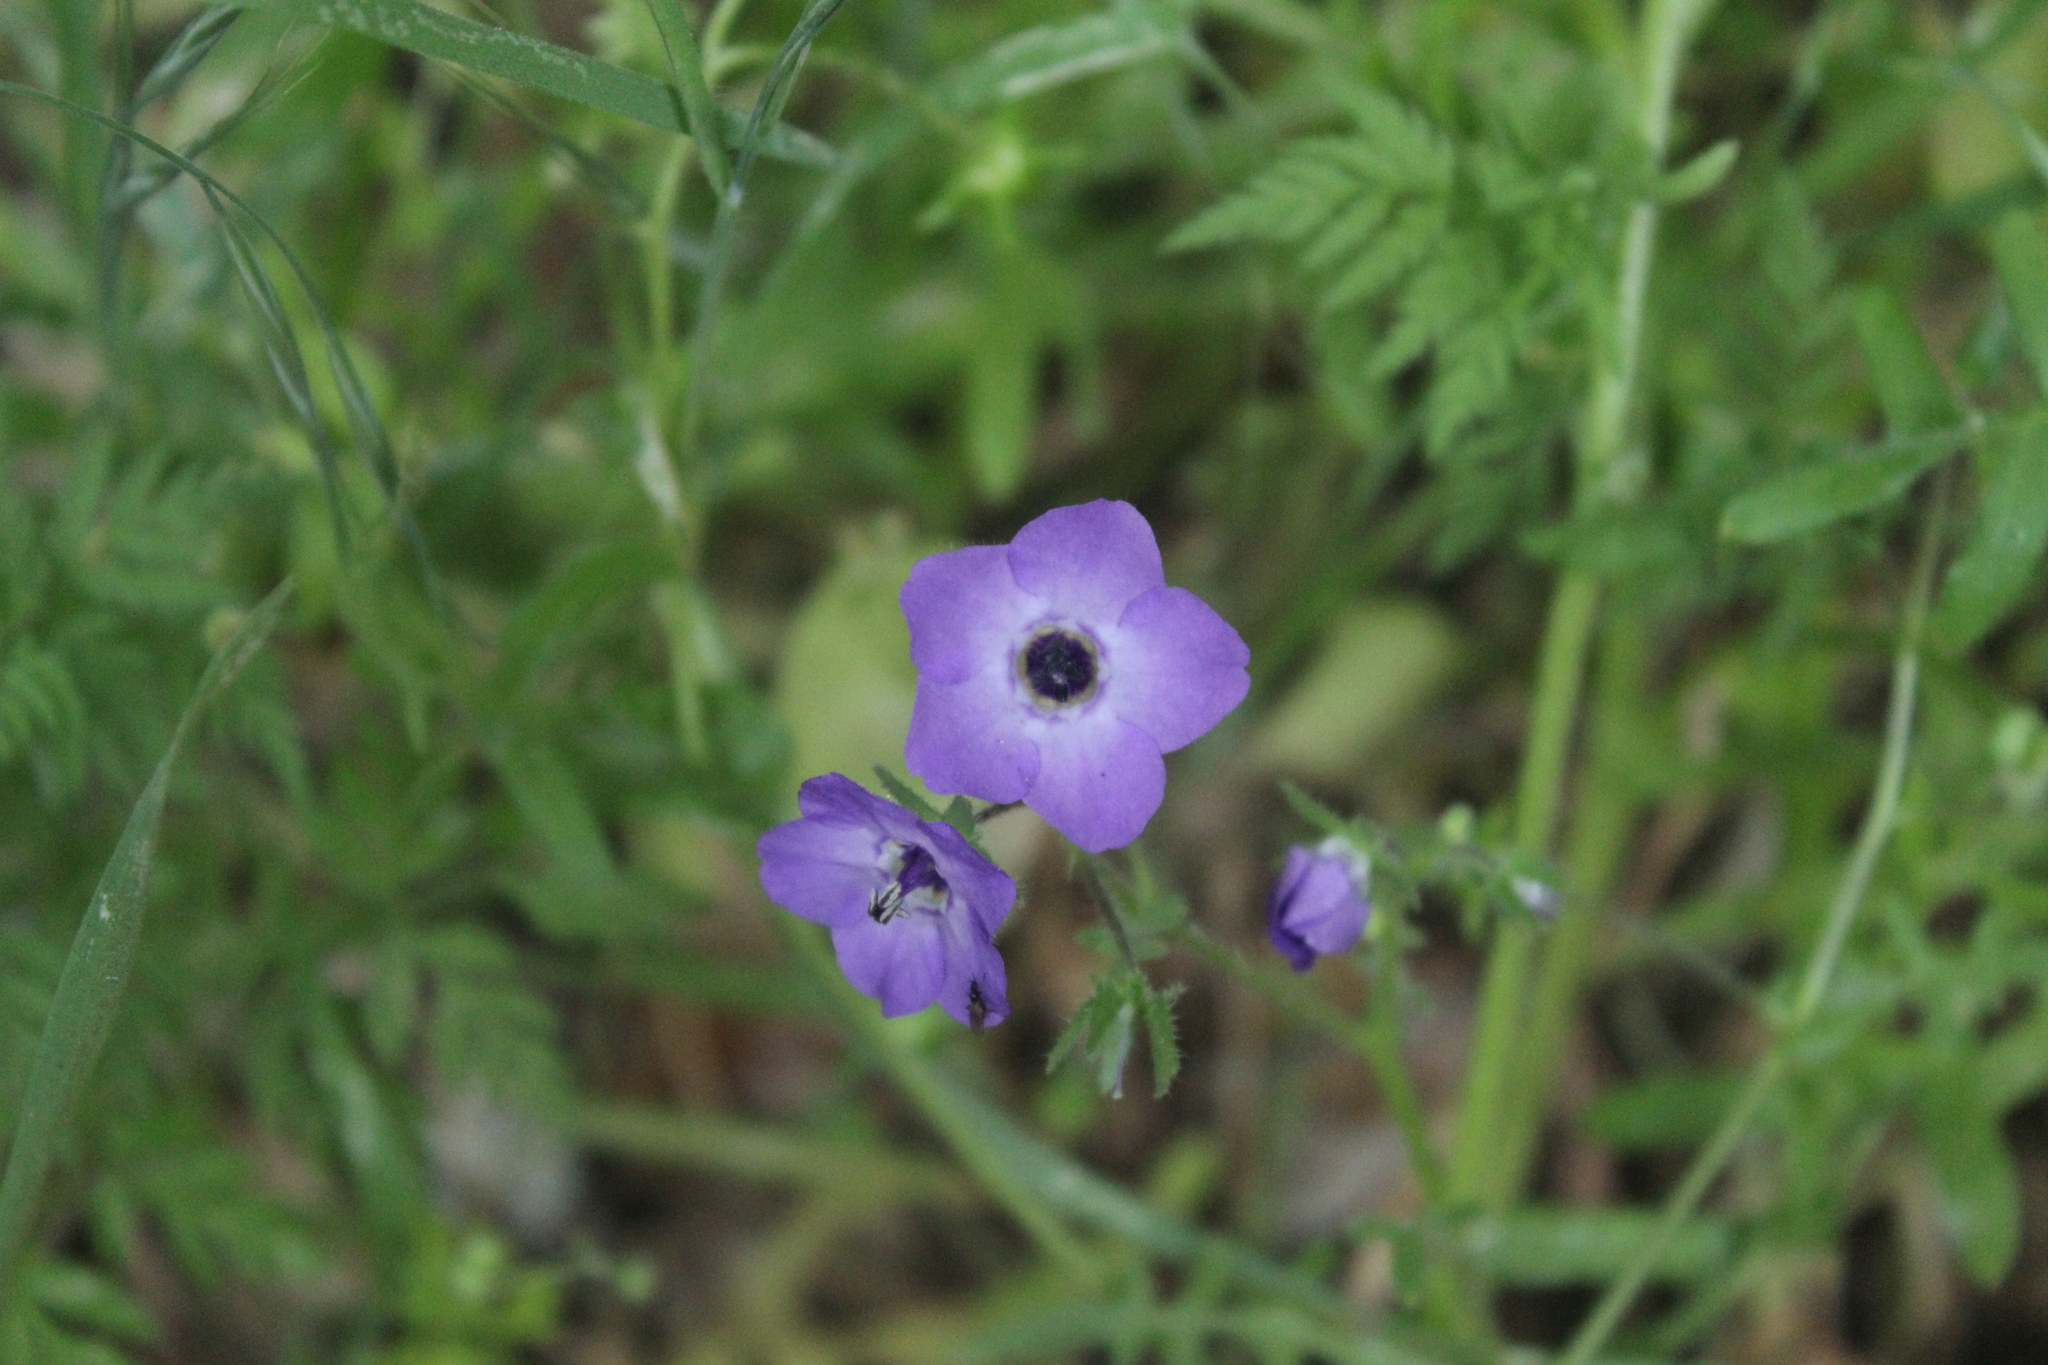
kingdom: Plantae
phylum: Tracheophyta
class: Magnoliopsida
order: Boraginales
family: Hydrophyllaceae
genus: Pholistoma
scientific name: Pholistoma auritum
